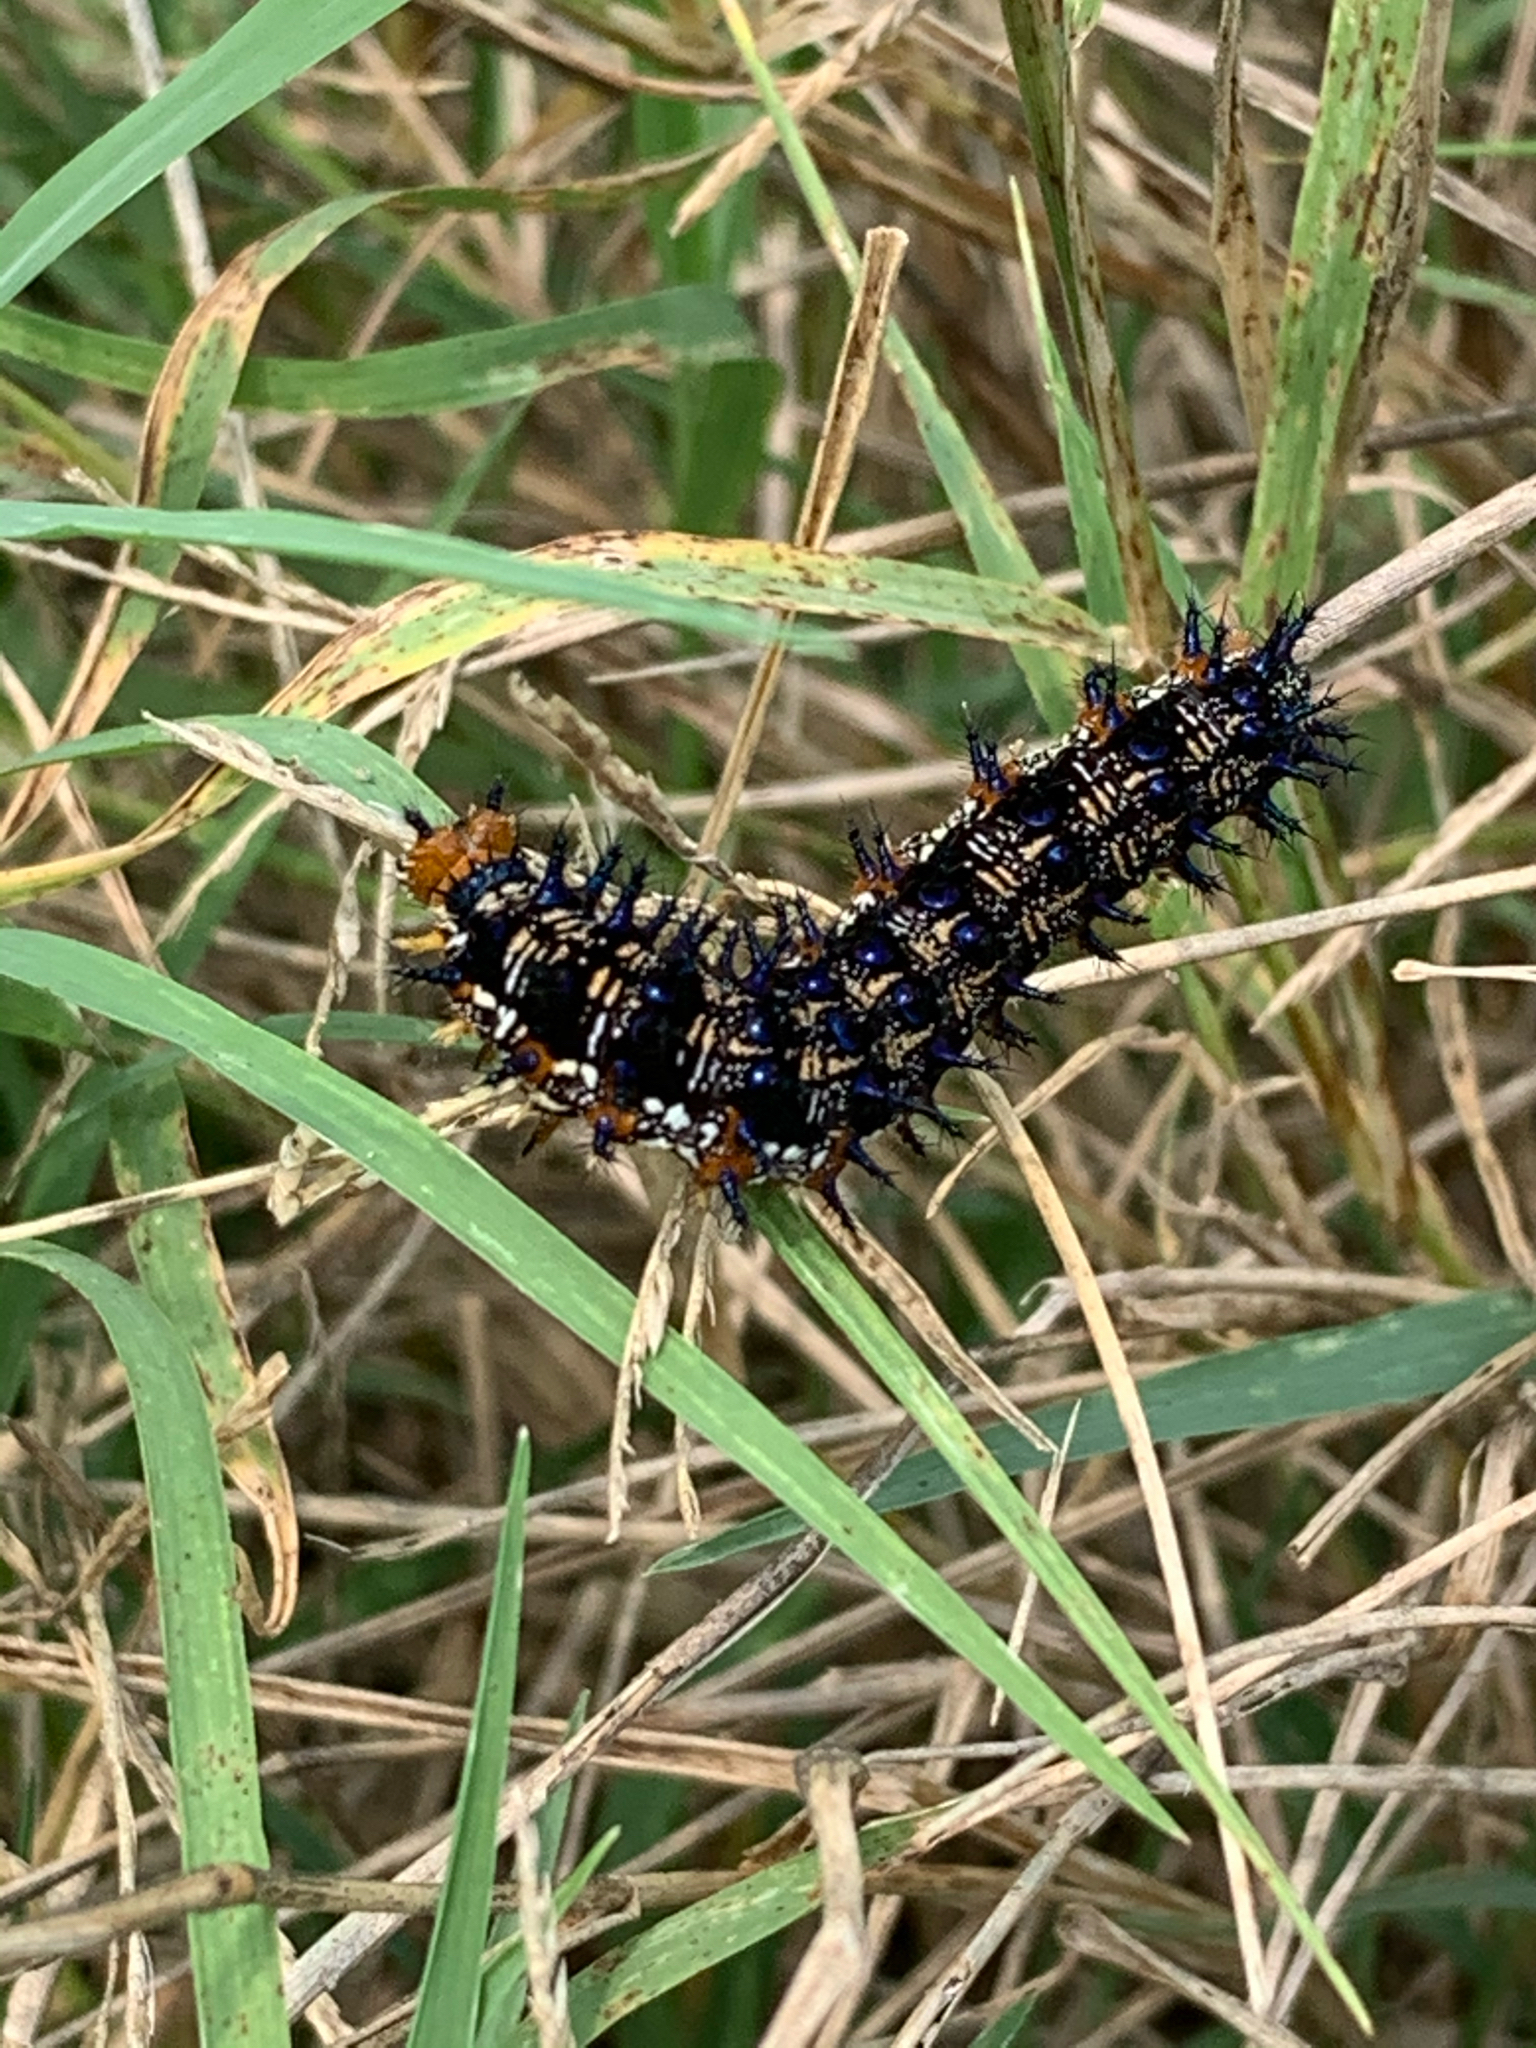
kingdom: Animalia
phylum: Arthropoda
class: Insecta
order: Lepidoptera
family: Nymphalidae
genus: Junonia
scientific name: Junonia coenia
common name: Common buckeye
